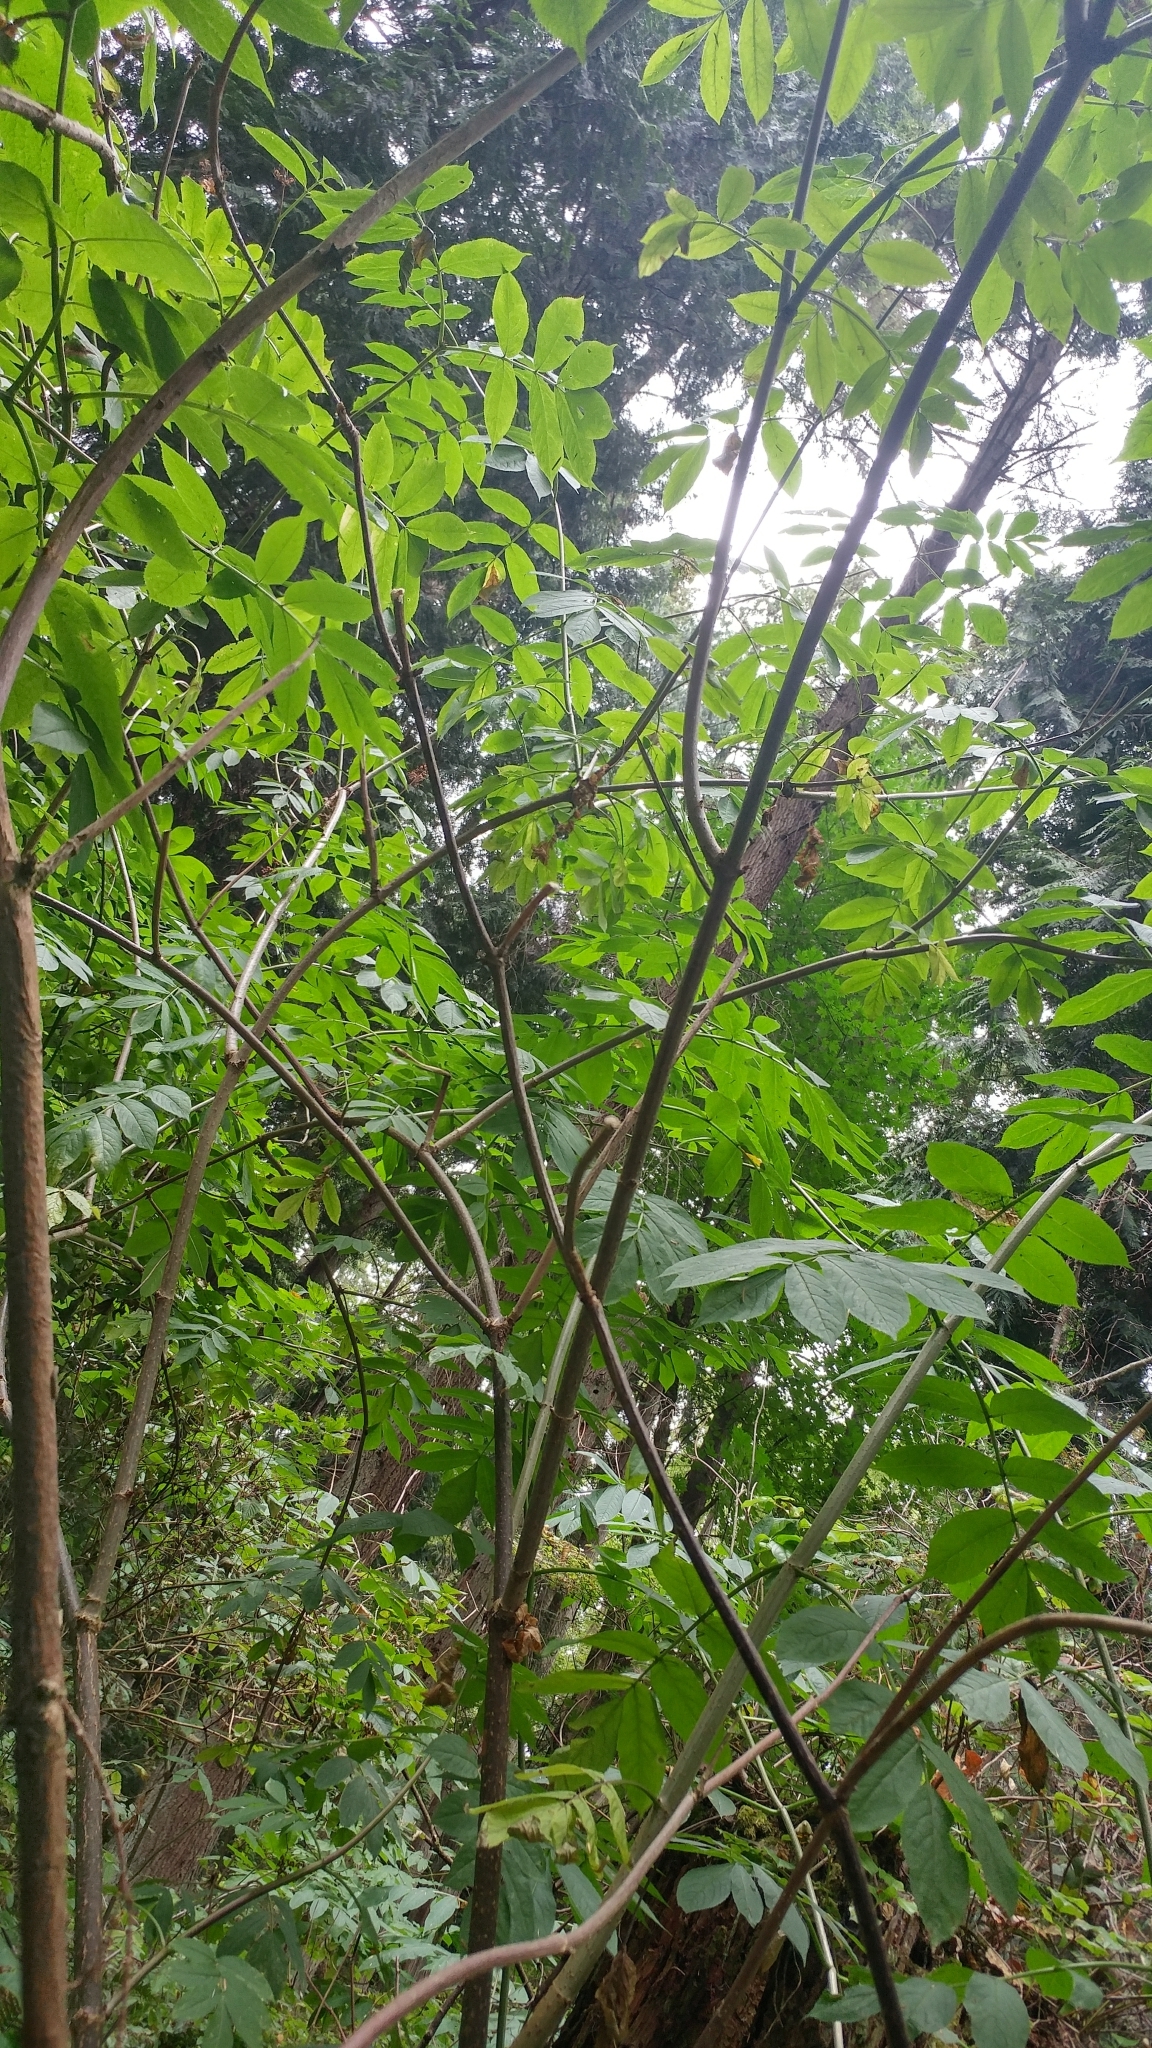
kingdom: Plantae
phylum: Tracheophyta
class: Magnoliopsida
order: Dipsacales
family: Viburnaceae
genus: Sambucus
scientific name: Sambucus racemosa
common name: Red-berried elder
